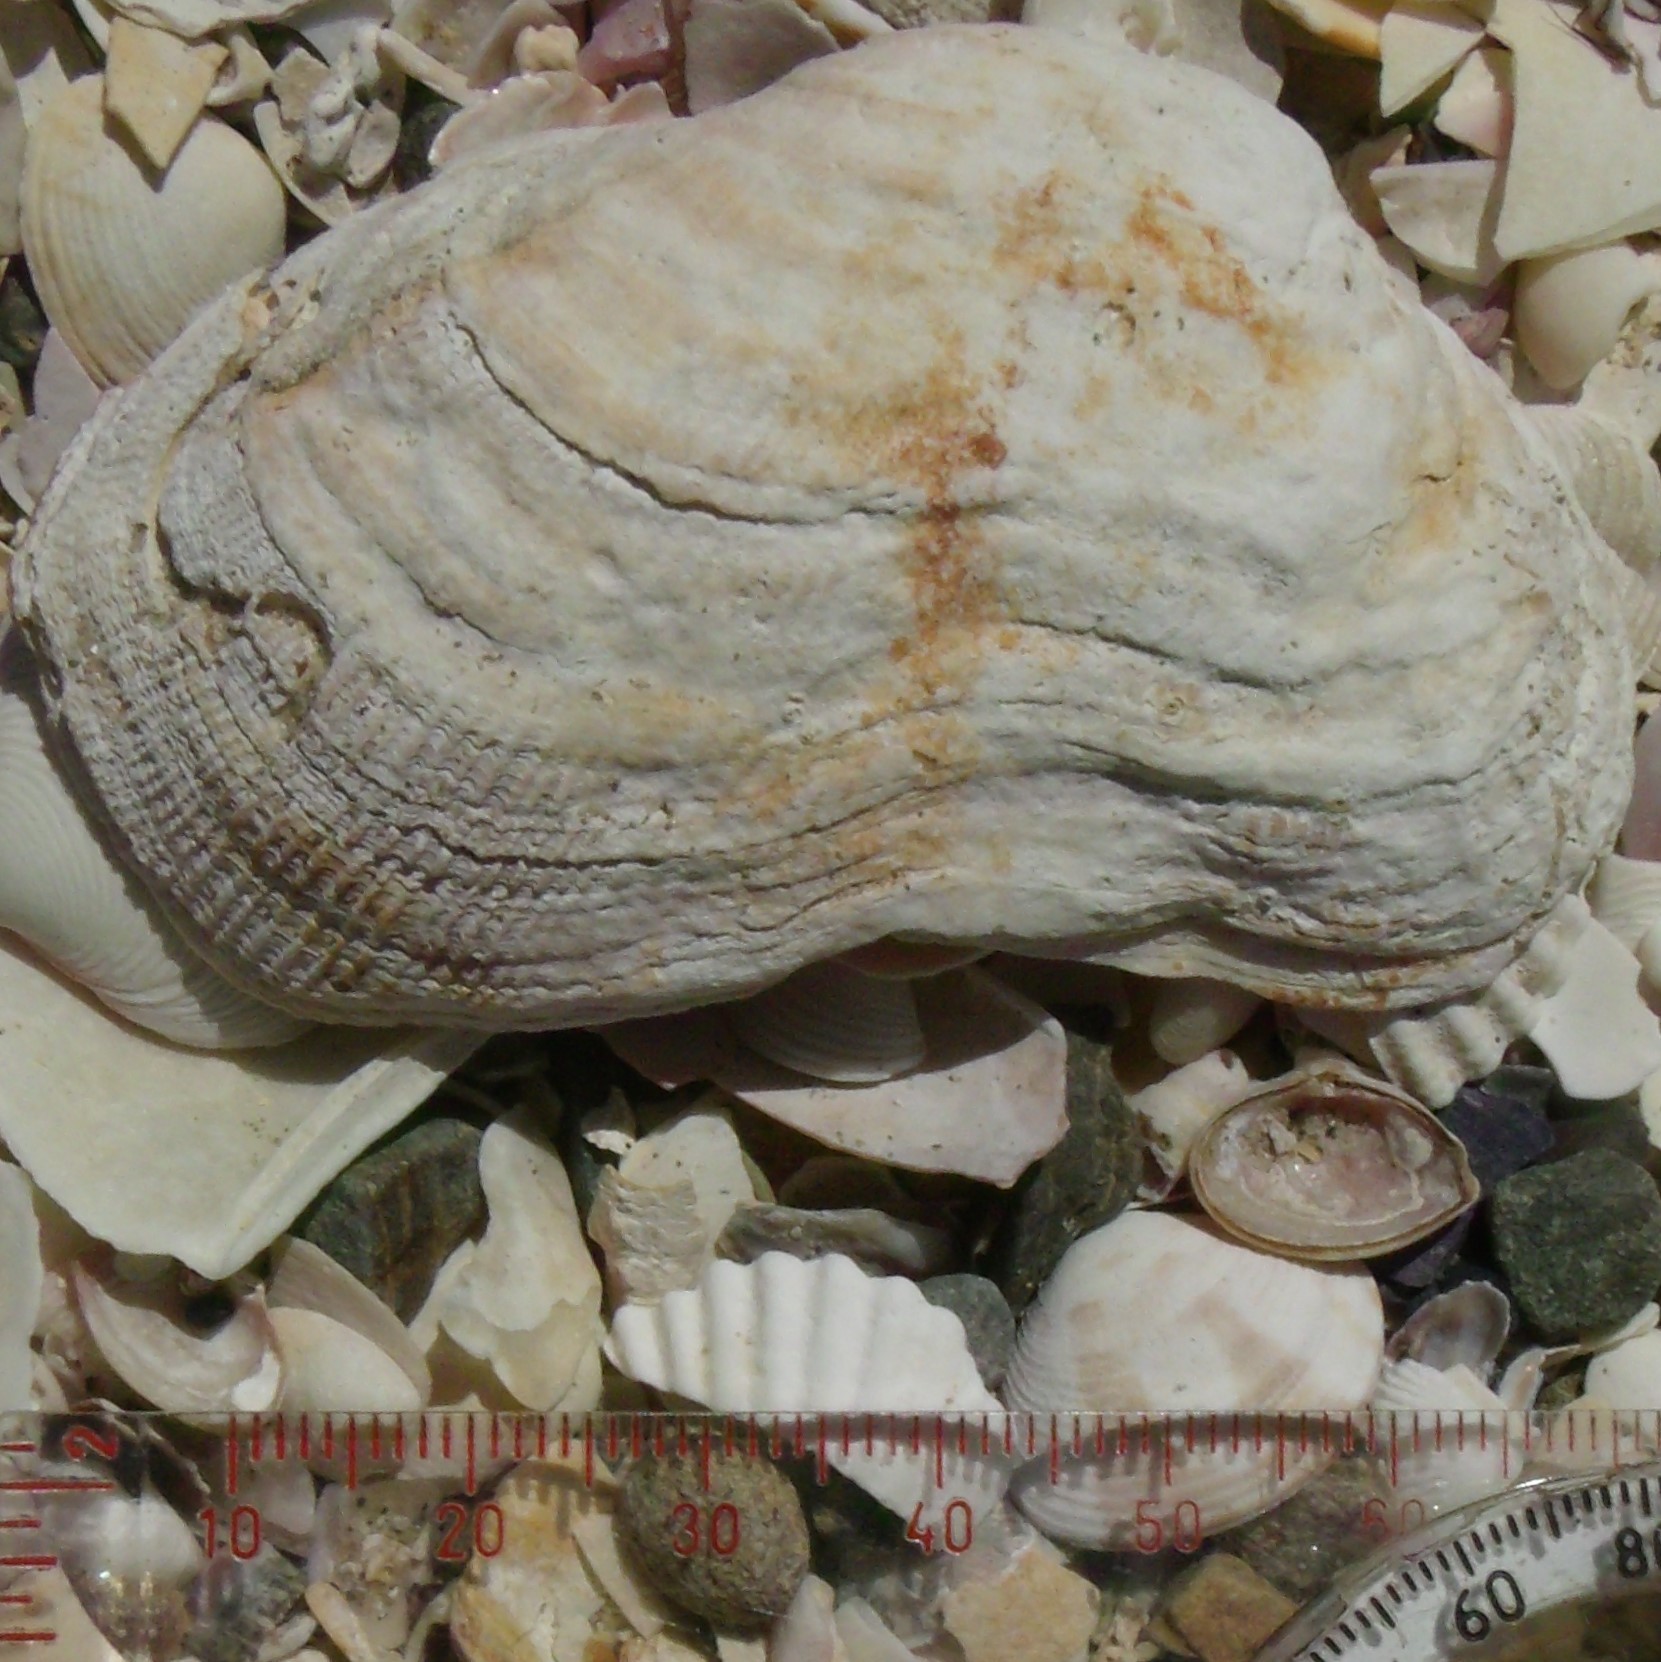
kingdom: Animalia
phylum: Mollusca
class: Bivalvia
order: Arcida
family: Arcidae
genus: Barbatia
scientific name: Barbatia novaezealandiae
